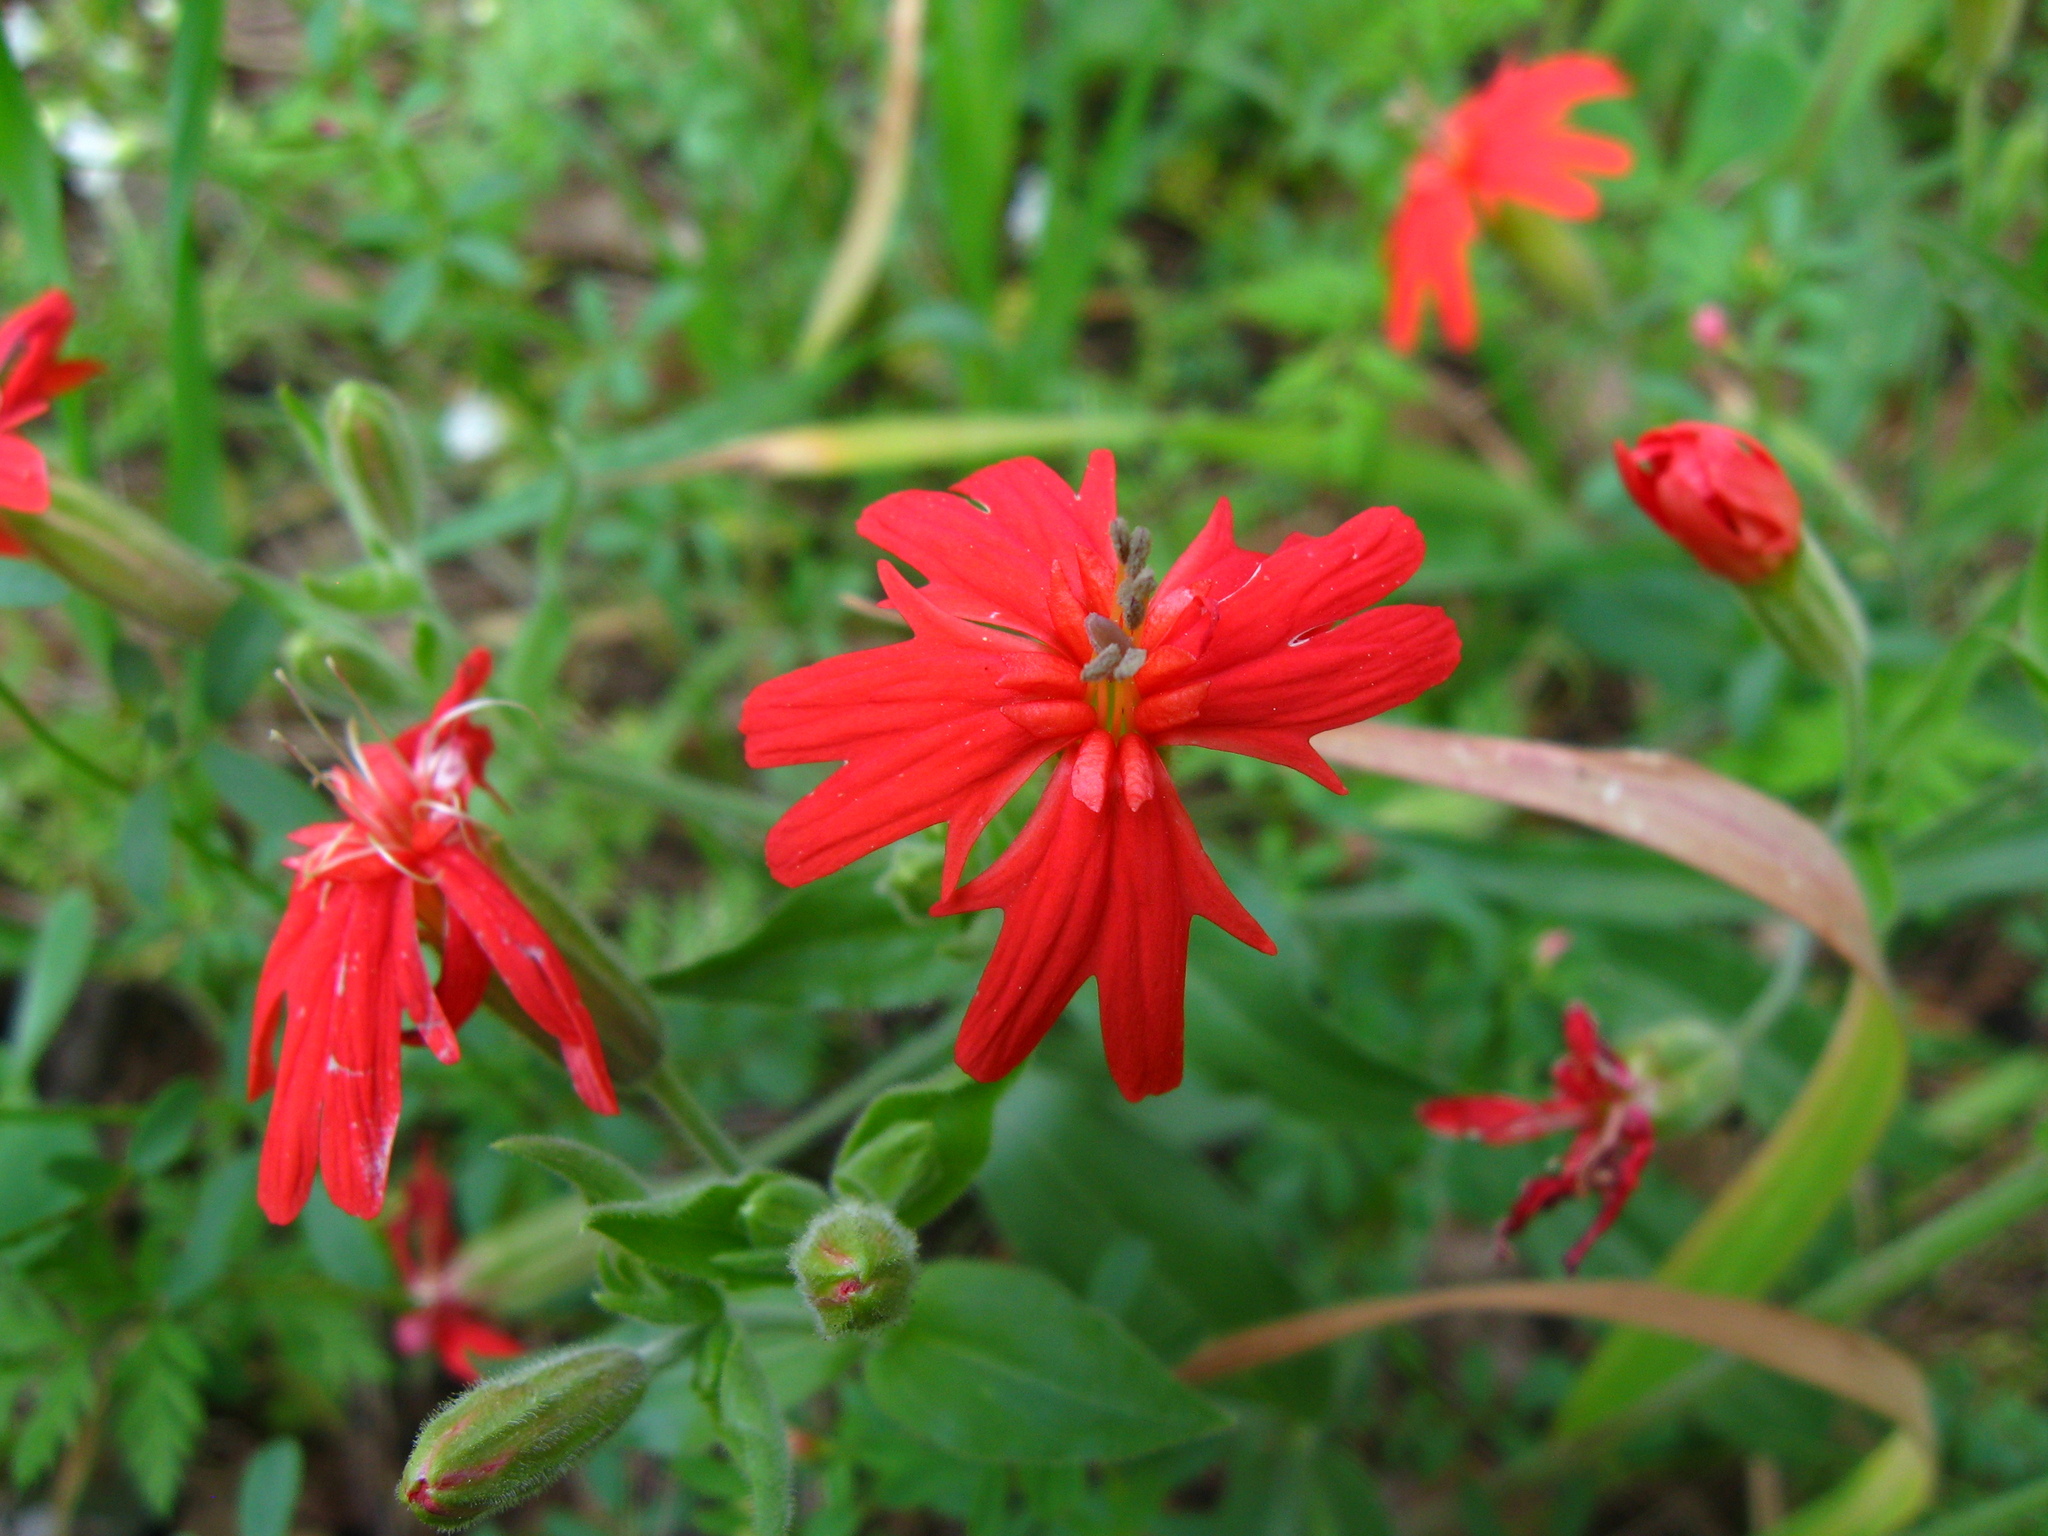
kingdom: Plantae
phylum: Tracheophyta
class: Magnoliopsida
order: Caryophyllales
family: Caryophyllaceae
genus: Silene
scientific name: Silene laciniata
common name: Indian-pink
